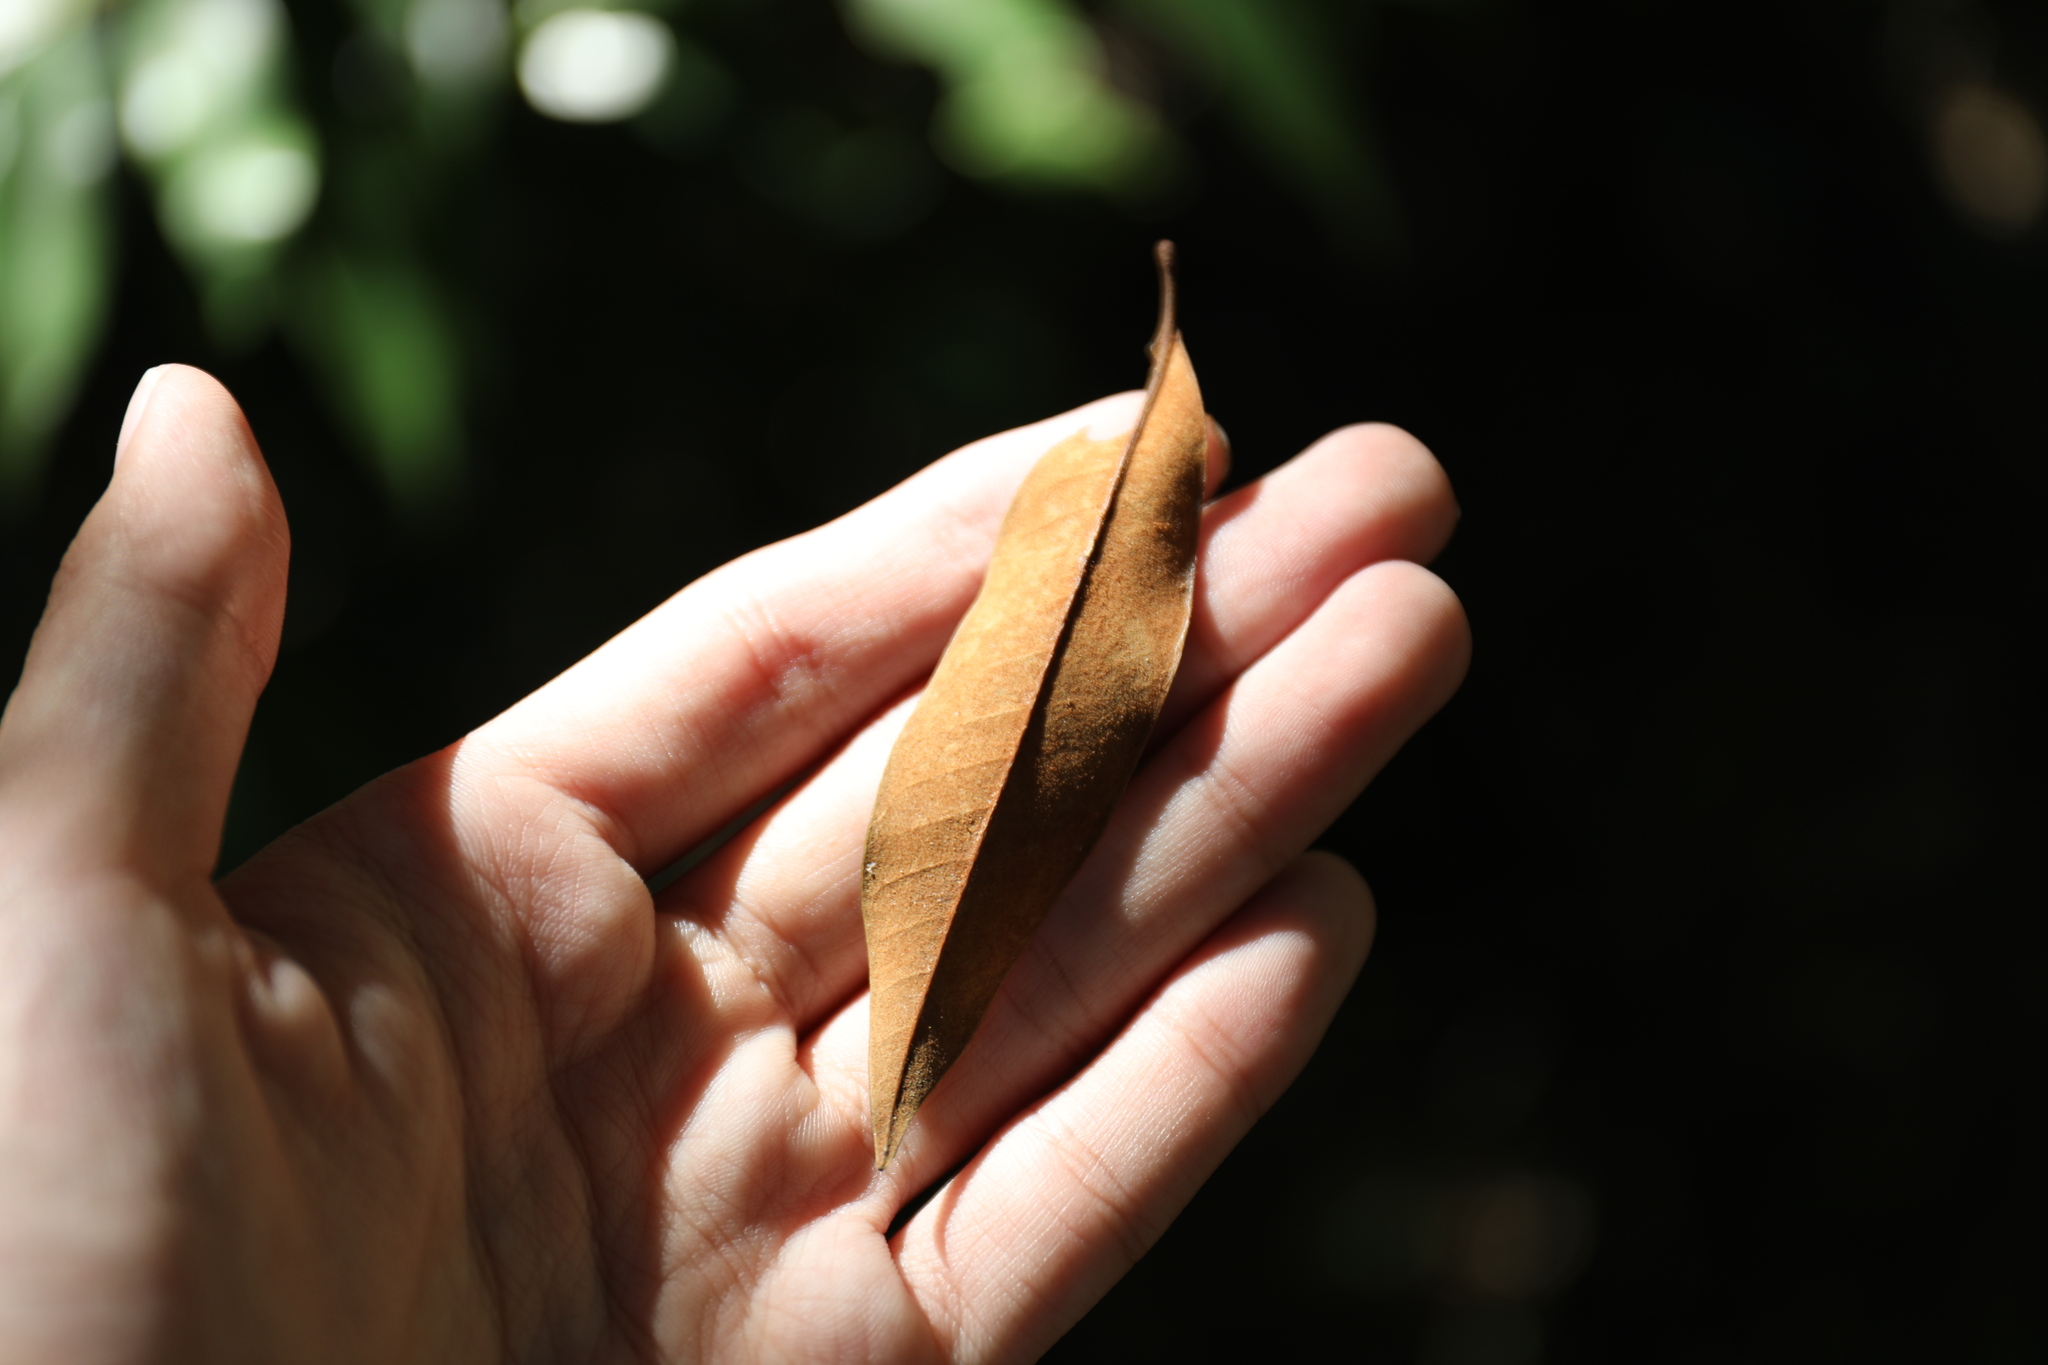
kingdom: Plantae
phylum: Tracheophyta
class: Magnoliopsida
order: Fagales
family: Fagaceae
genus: Castanopsis
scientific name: Castanopsis fargesii
